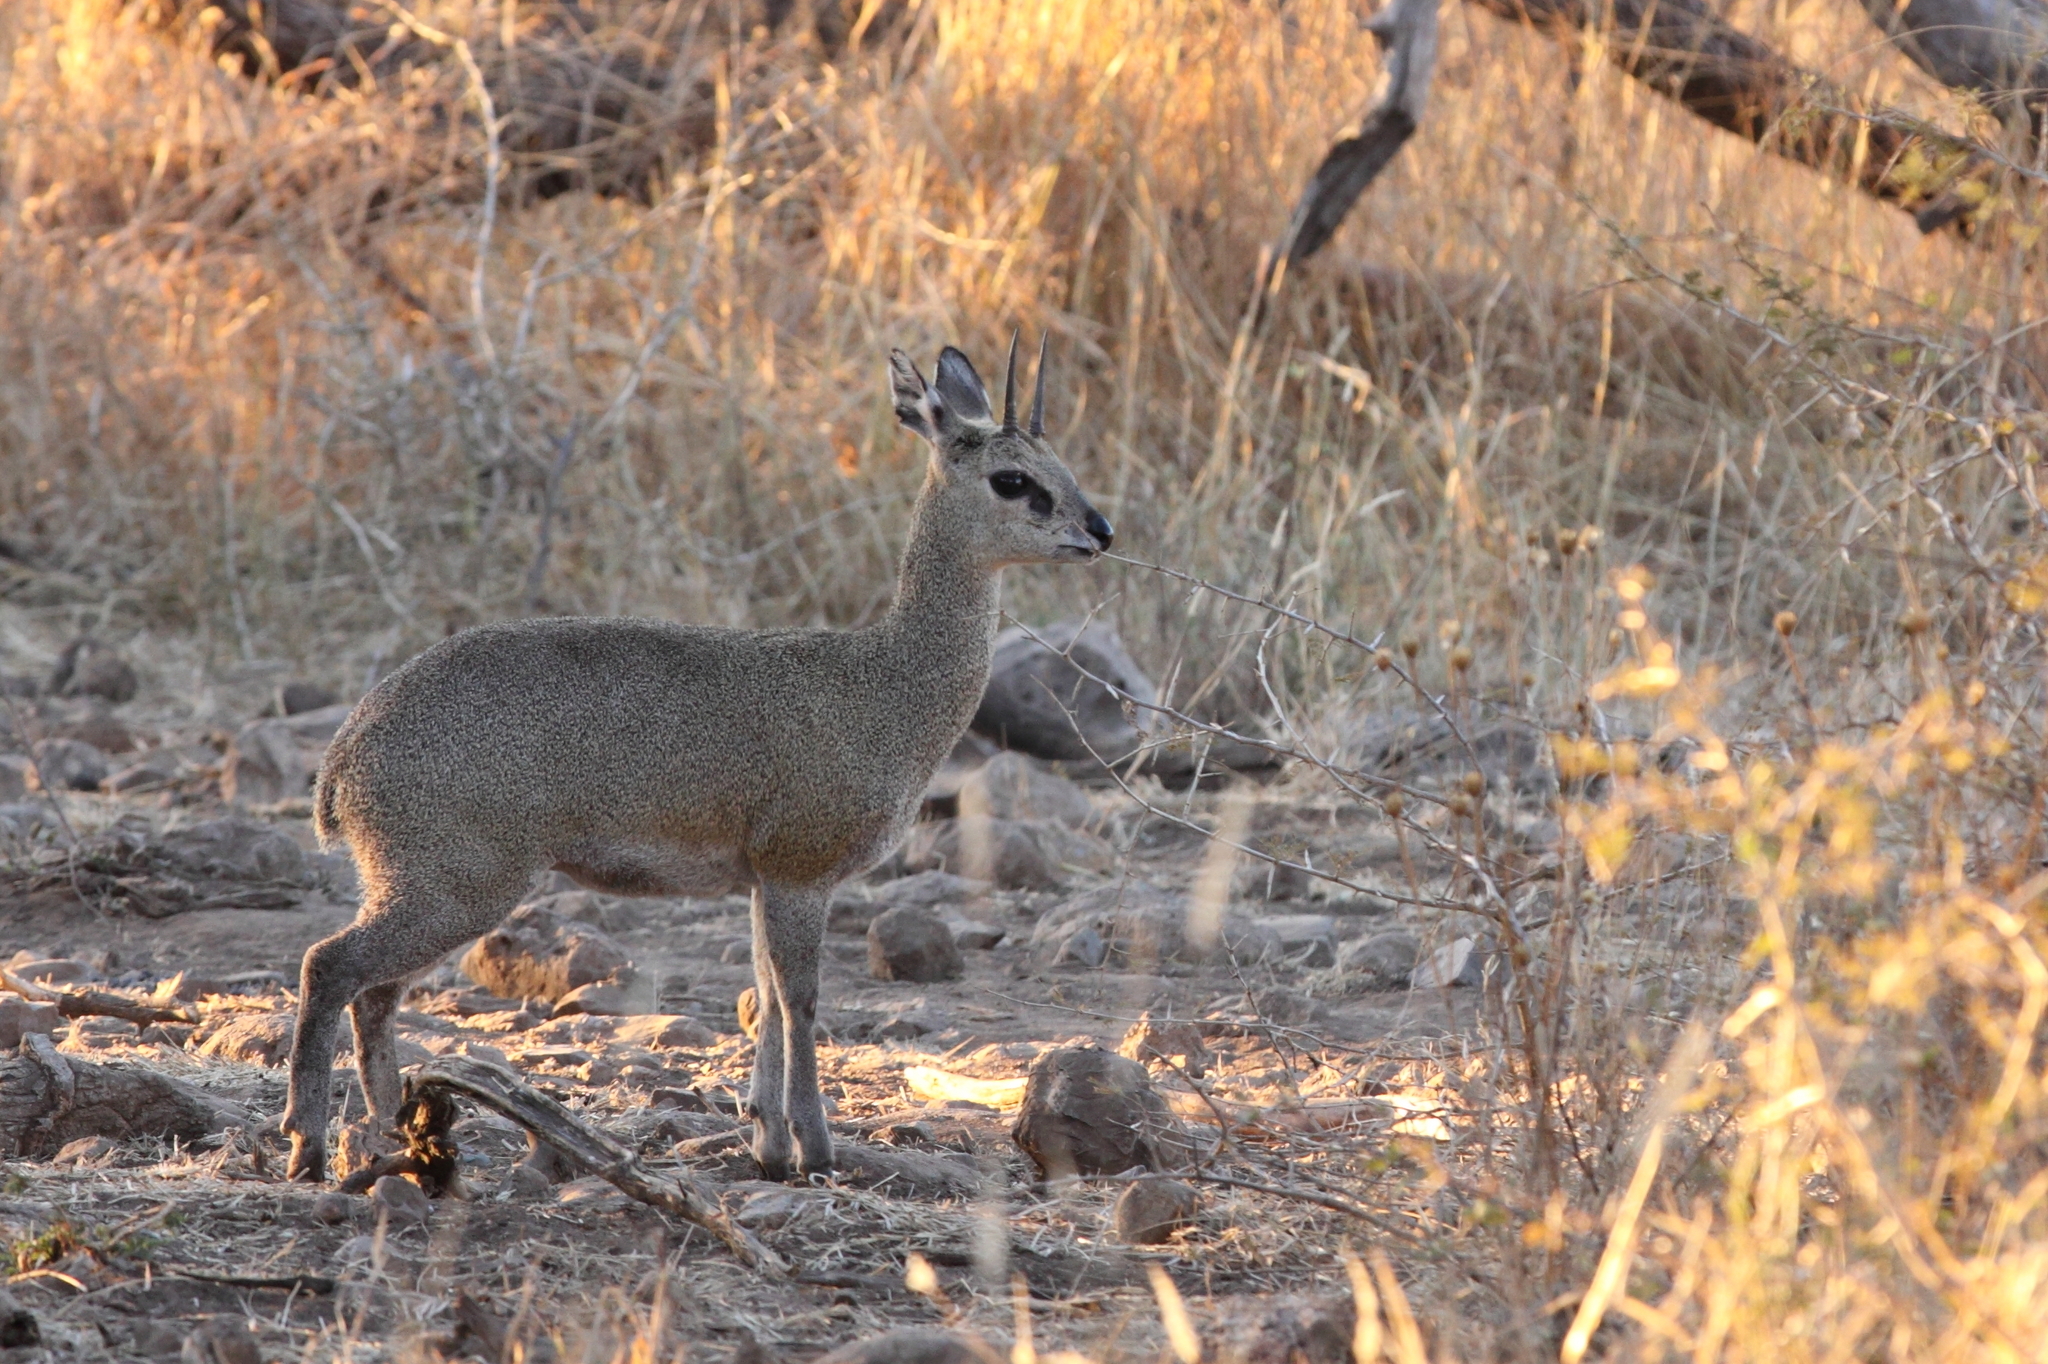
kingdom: Animalia
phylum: Chordata
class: Mammalia
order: Artiodactyla
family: Bovidae
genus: Oreotragus
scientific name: Oreotragus oreotragus
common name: Klipspringer
